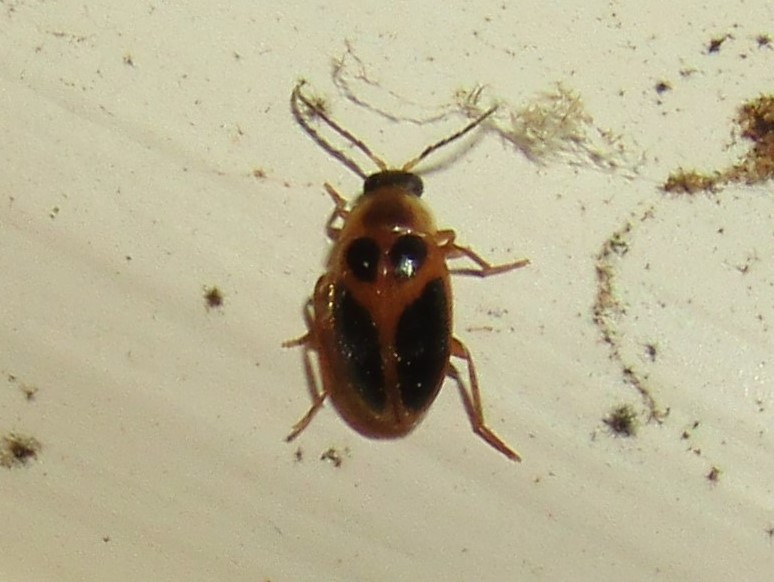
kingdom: Animalia
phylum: Arthropoda
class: Insecta
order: Coleoptera
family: Scirtidae
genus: Sacodes
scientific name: Sacodes pulchella
